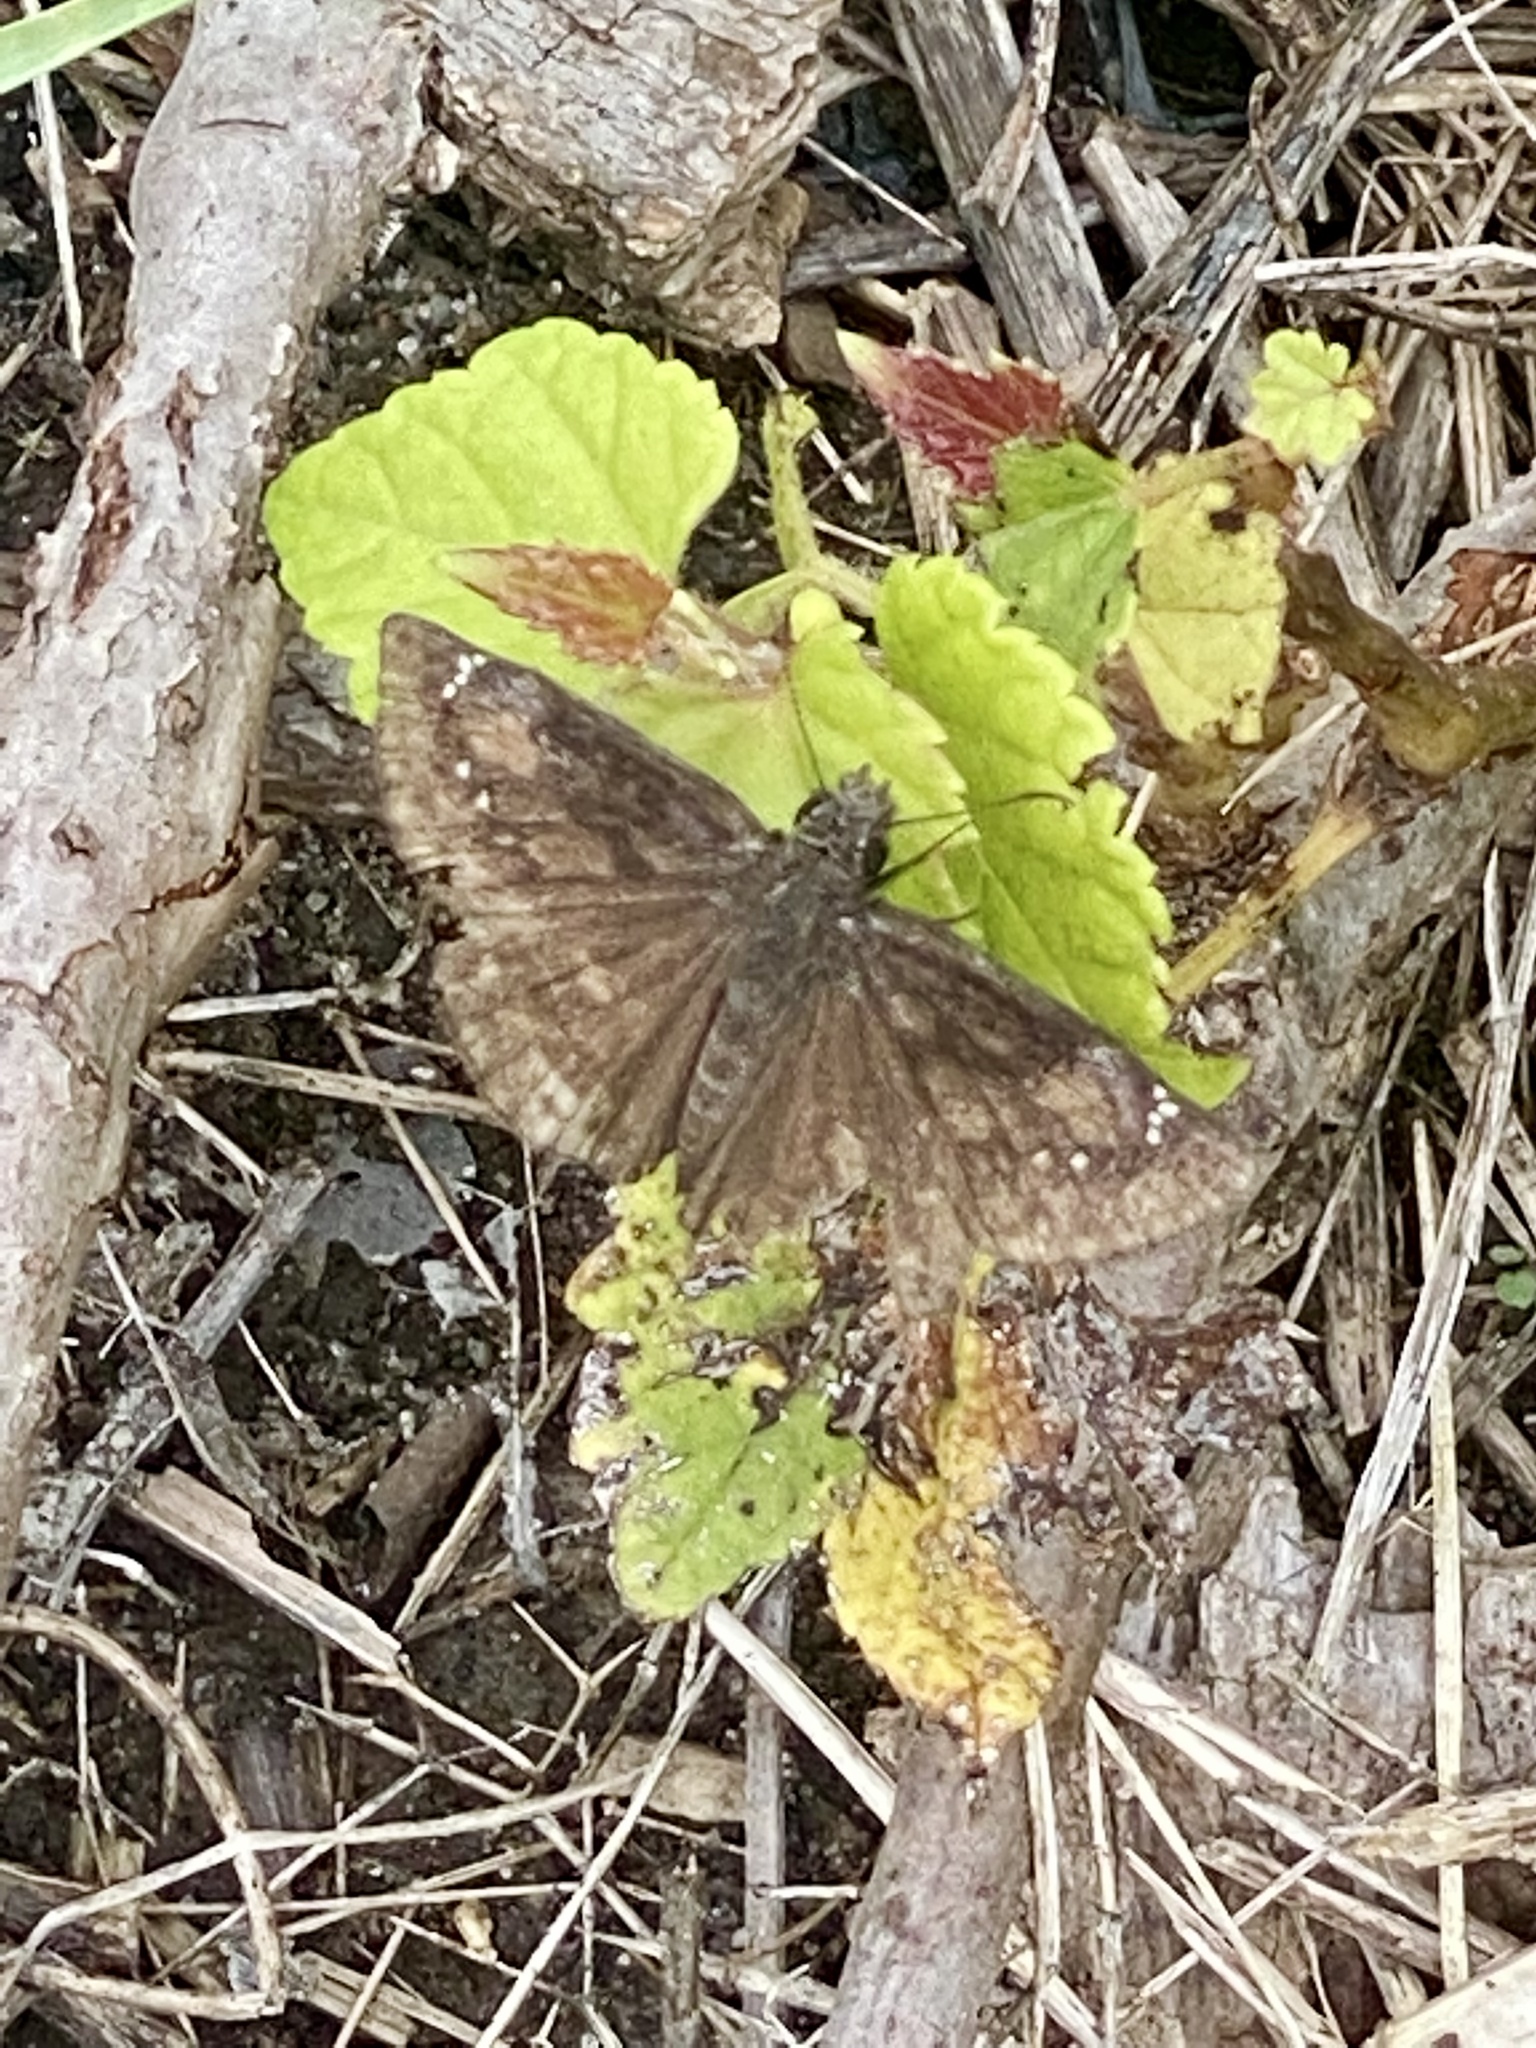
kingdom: Animalia
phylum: Arthropoda
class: Insecta
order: Lepidoptera
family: Hesperiidae
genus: Erynnis
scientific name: Erynnis baptisiae
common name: Wild indigo duskywing
